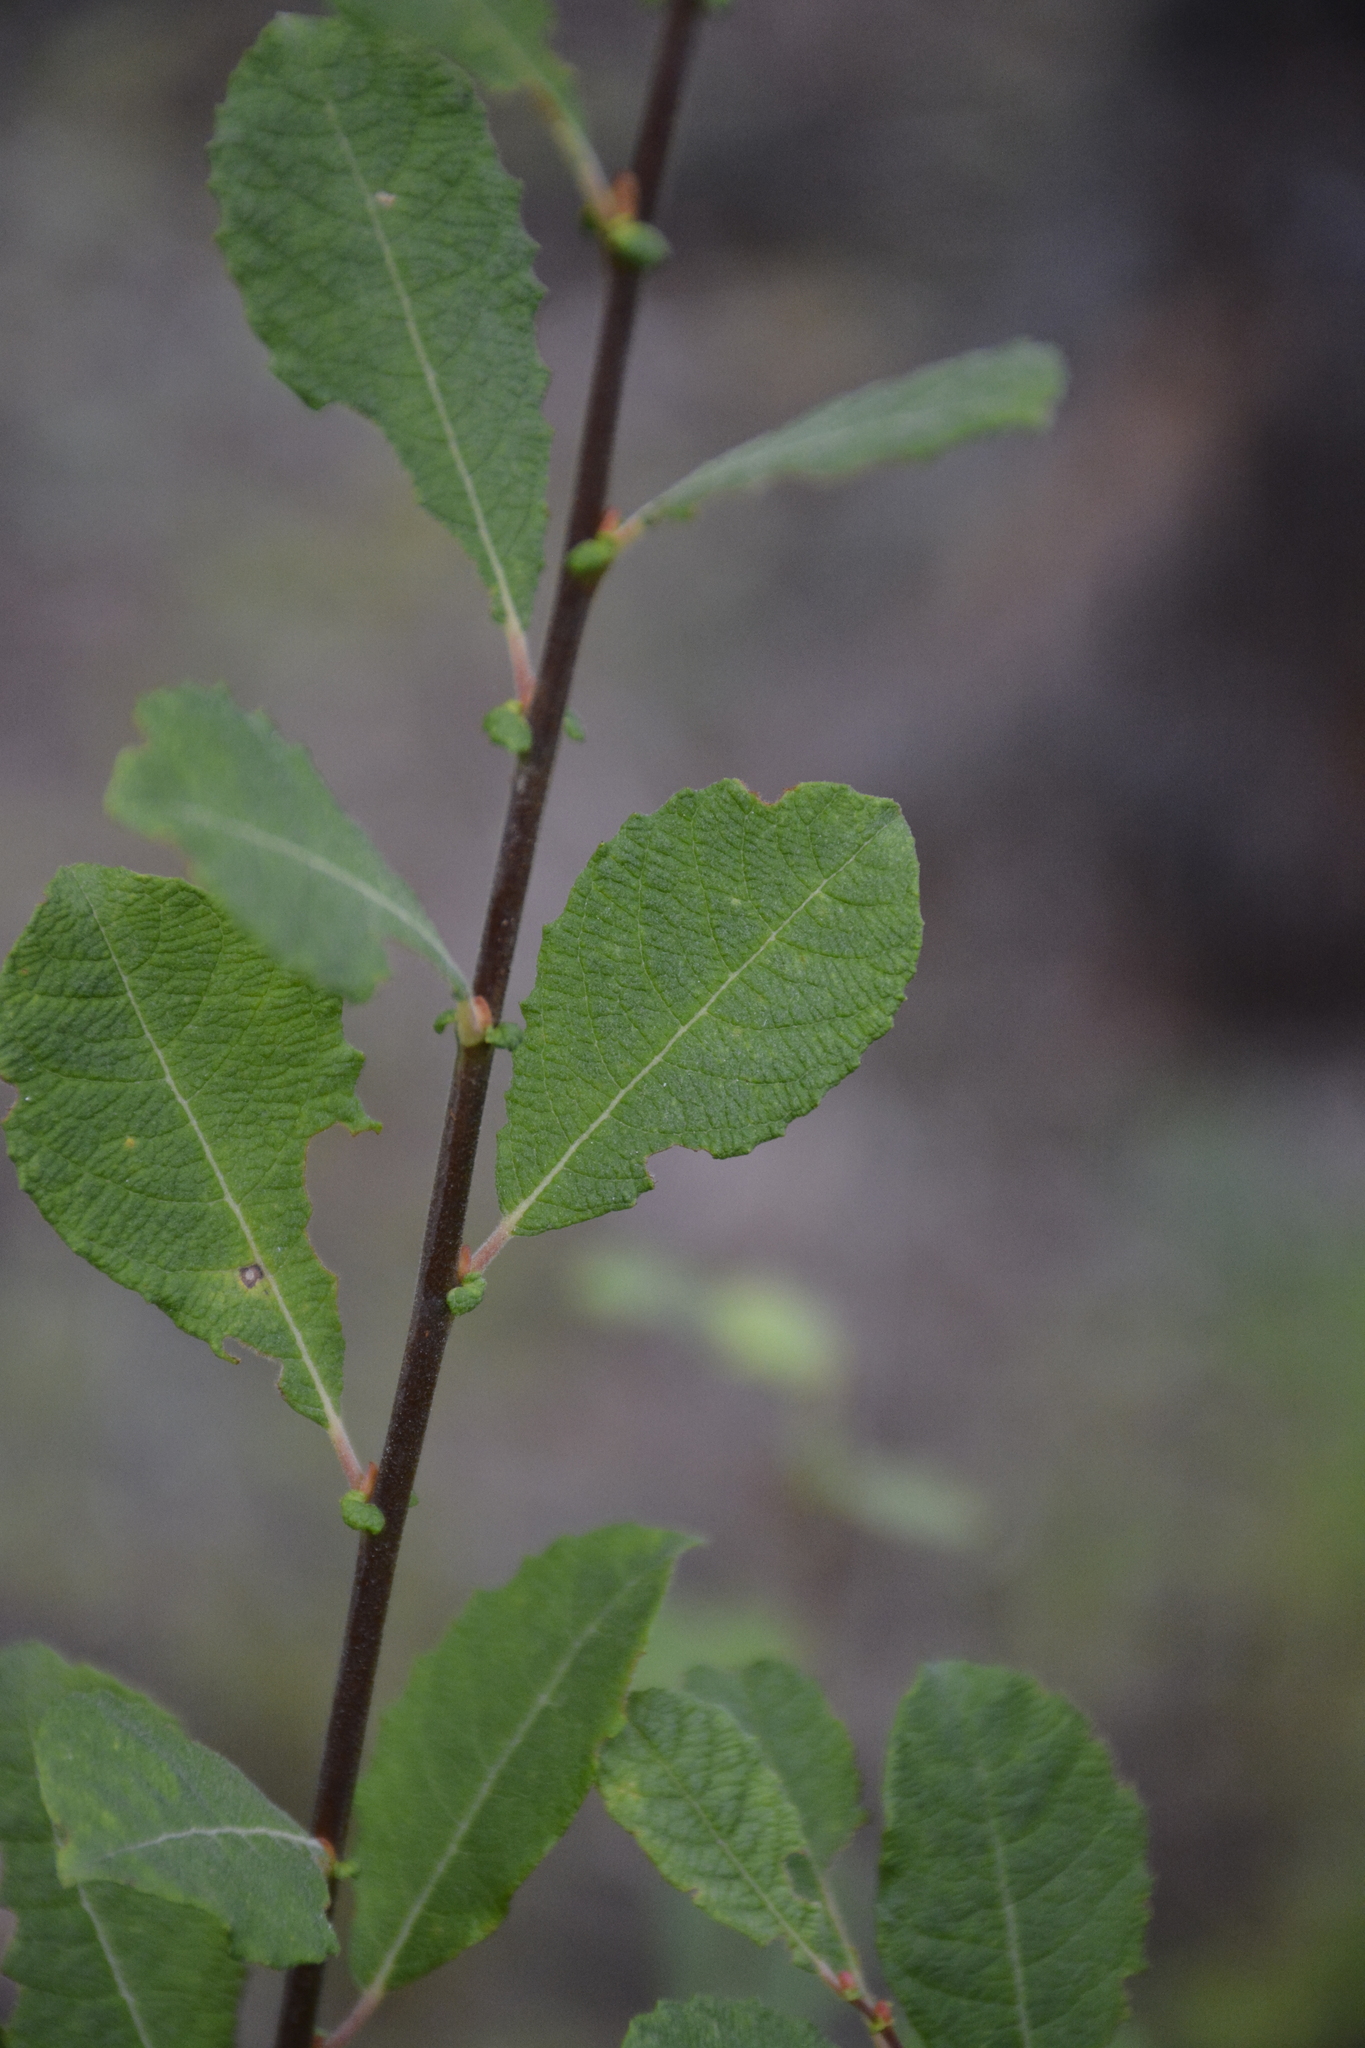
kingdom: Plantae
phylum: Tracheophyta
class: Magnoliopsida
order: Malpighiales
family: Salicaceae
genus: Salix
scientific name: Salix aurita
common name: Eared willow
